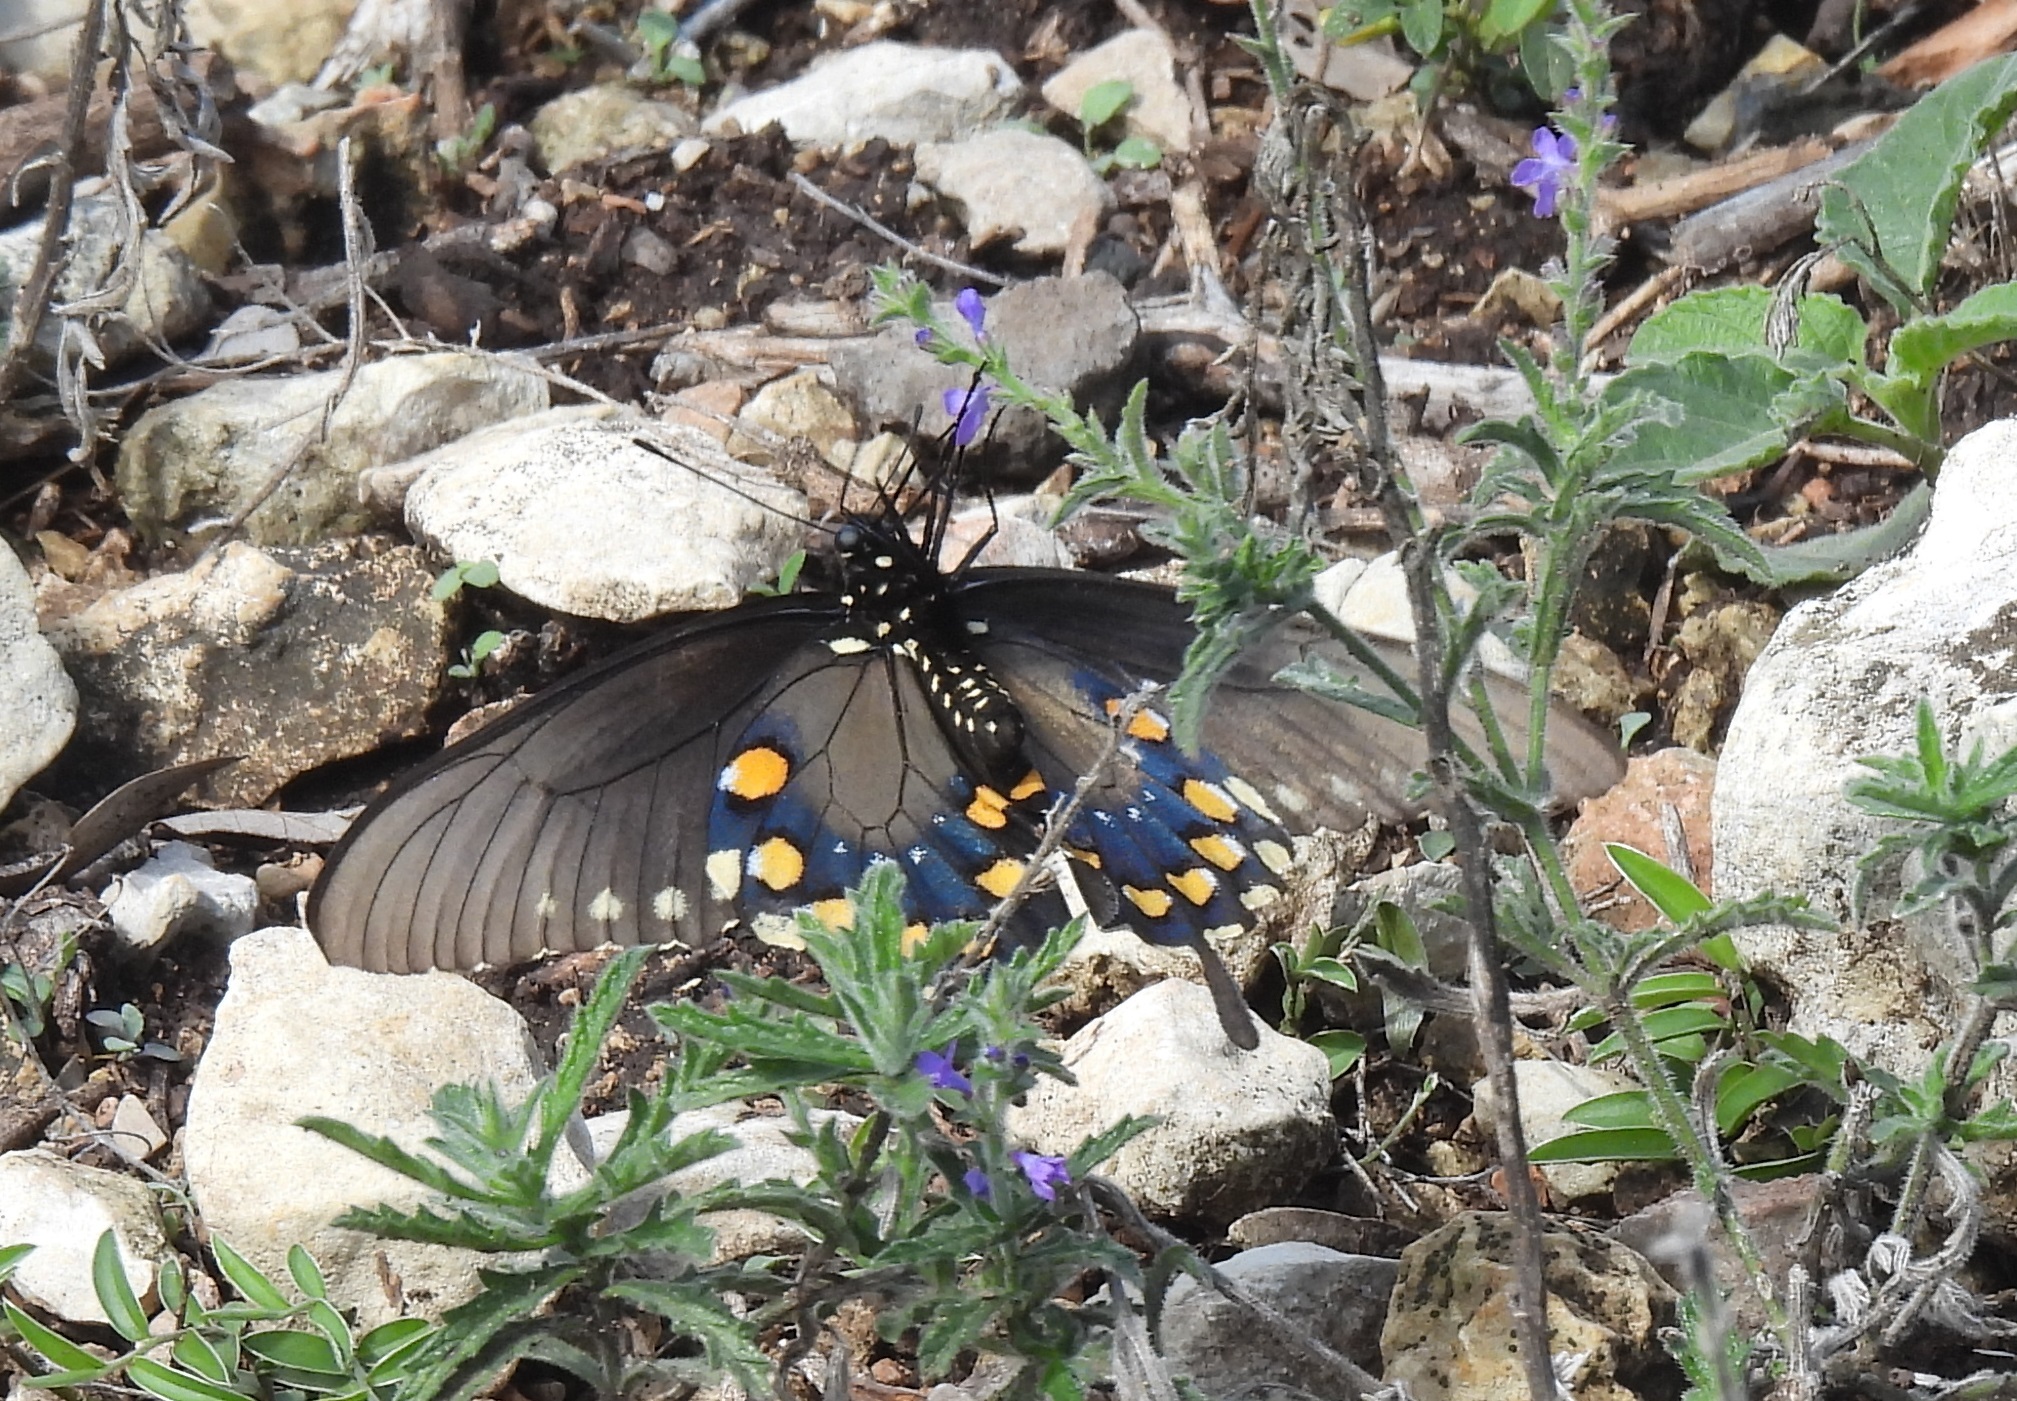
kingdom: Animalia
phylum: Arthropoda
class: Insecta
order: Lepidoptera
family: Papilionidae
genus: Battus
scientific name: Battus philenor
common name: Pipevine swallowtail
